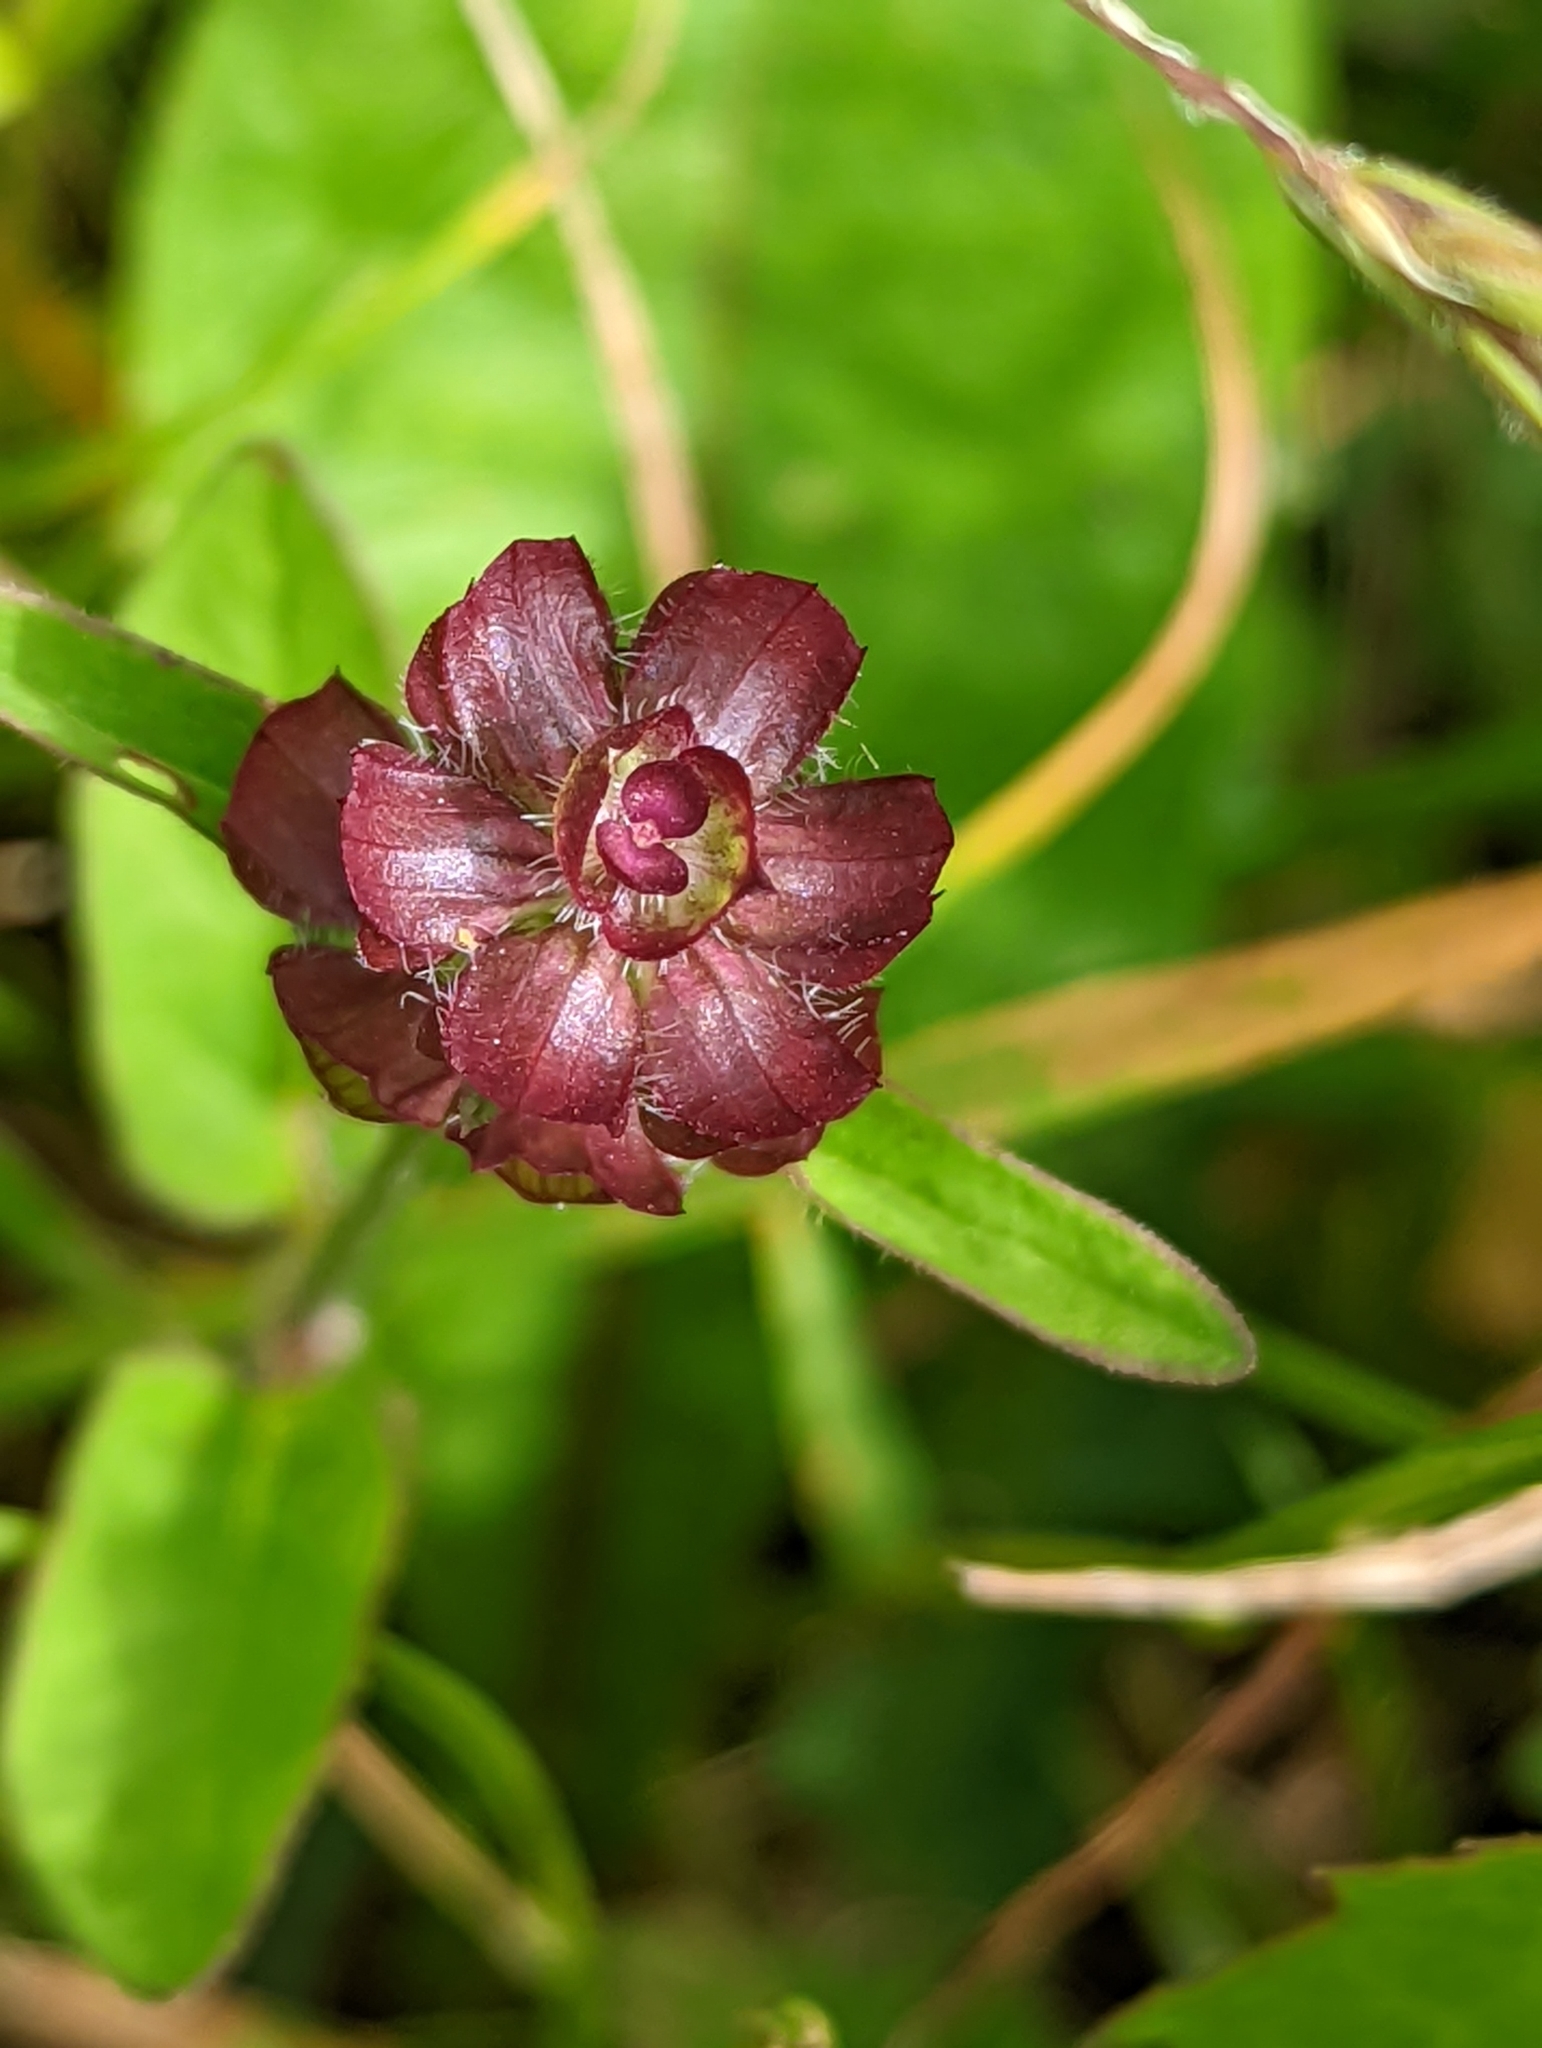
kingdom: Plantae
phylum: Tracheophyta
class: Magnoliopsida
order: Lamiales
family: Lamiaceae
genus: Prunella
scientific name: Prunella vulgaris
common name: Heal-all
